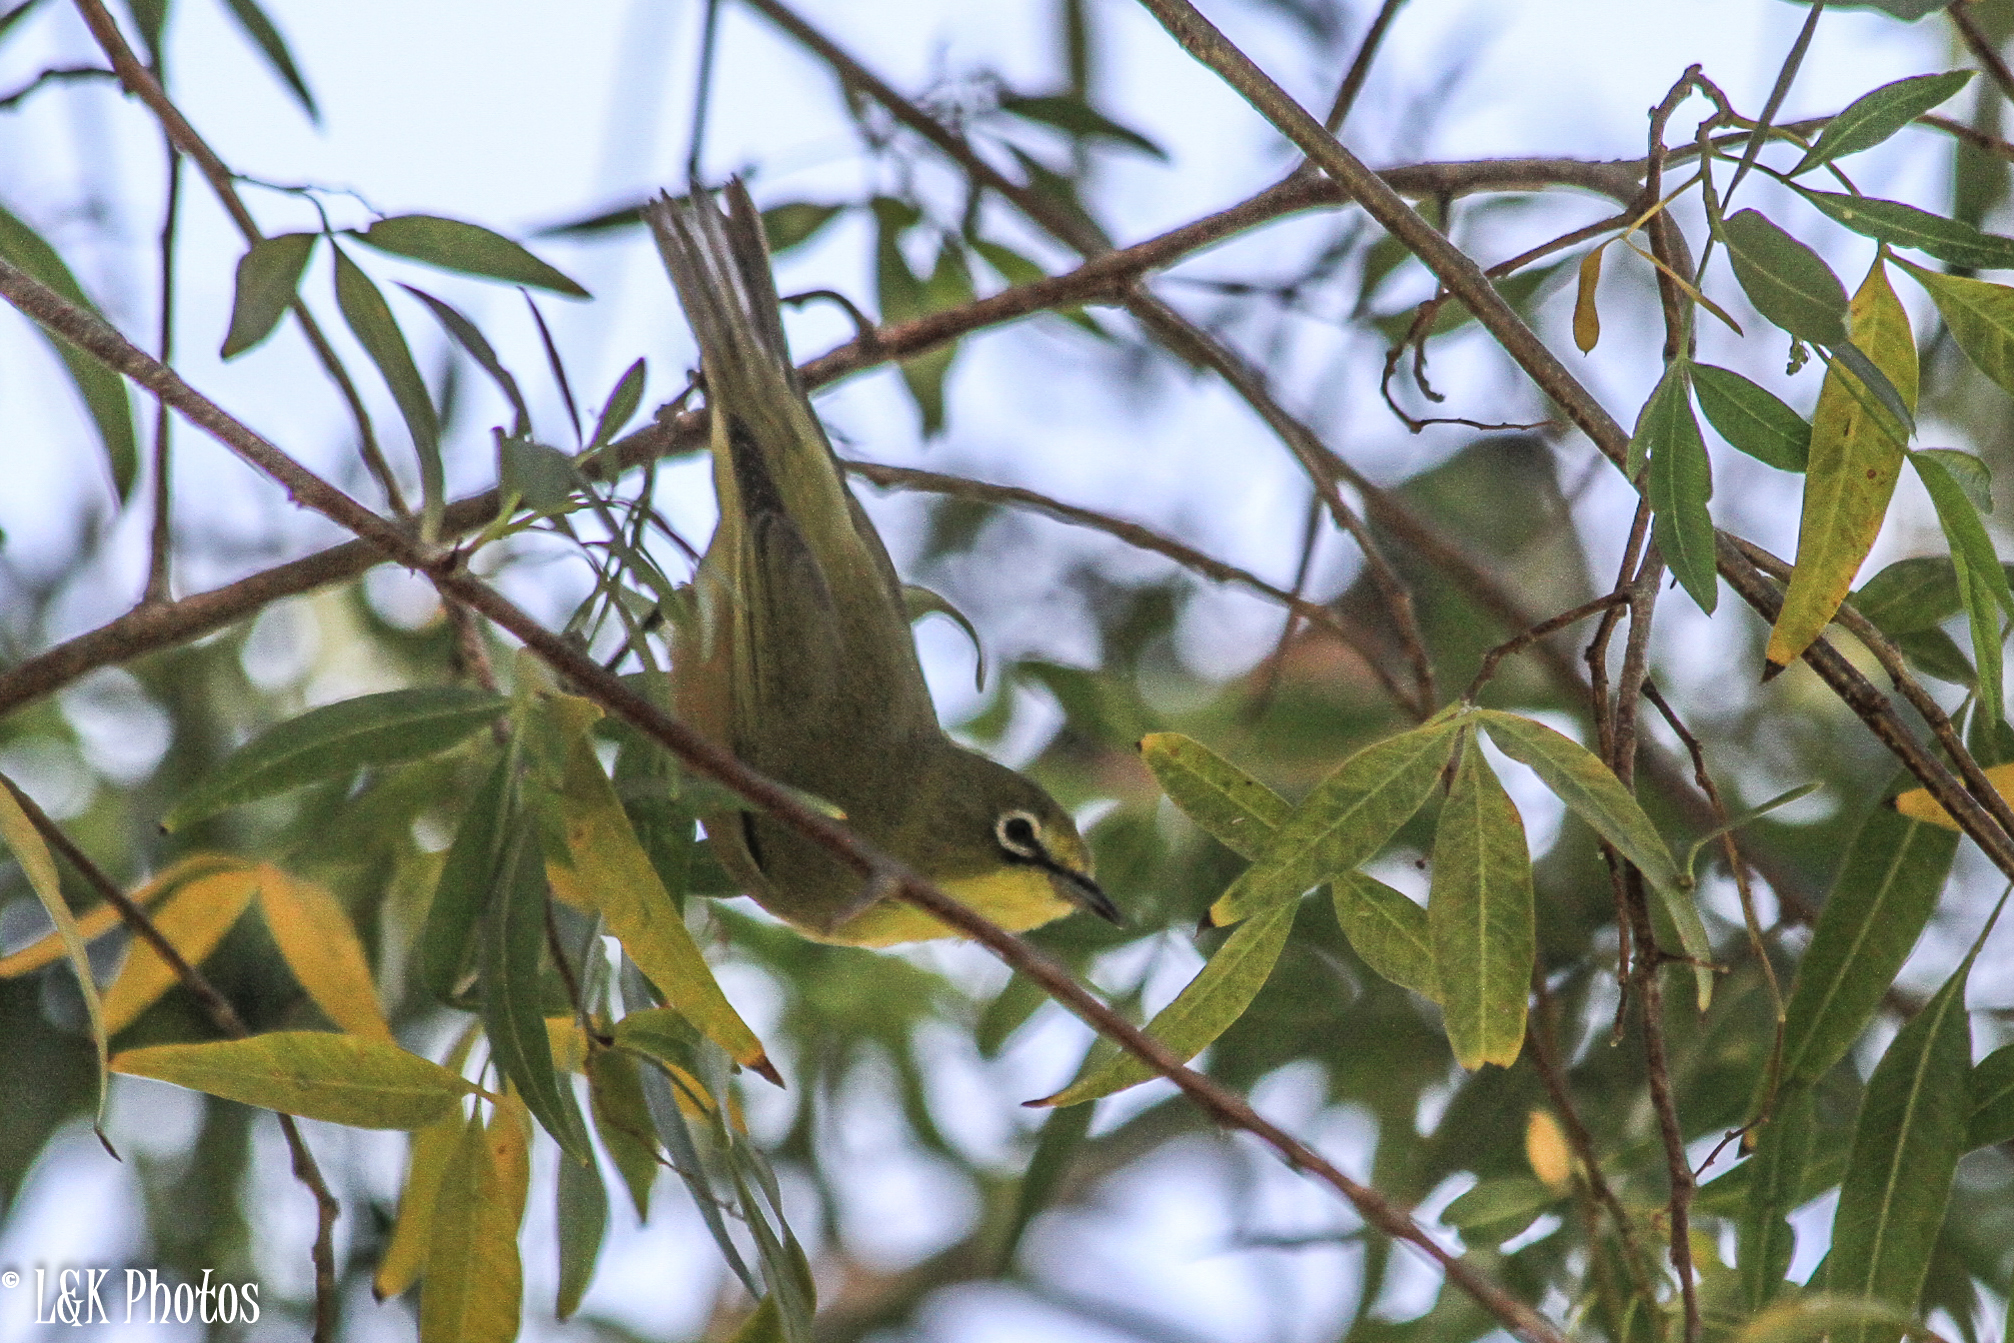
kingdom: Animalia
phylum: Chordata
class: Aves
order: Passeriformes
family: Zosteropidae
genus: Zosterops
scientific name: Zosterops pallidus
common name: Orange river white-eye
